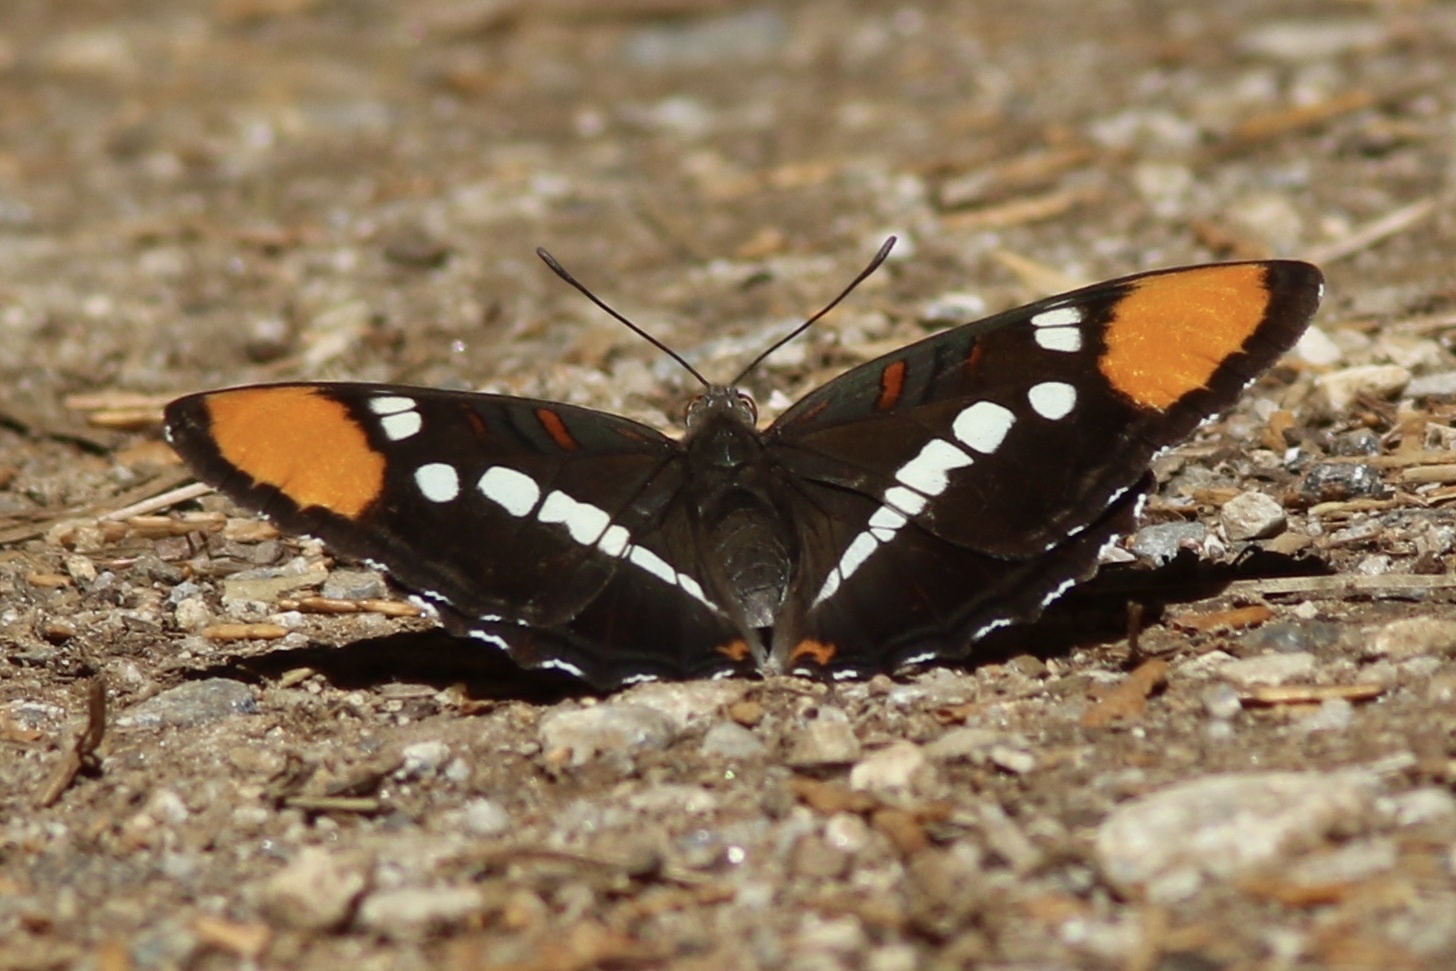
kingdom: Animalia
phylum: Arthropoda
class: Insecta
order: Lepidoptera
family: Nymphalidae
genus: Limenitis
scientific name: Limenitis bredowii
